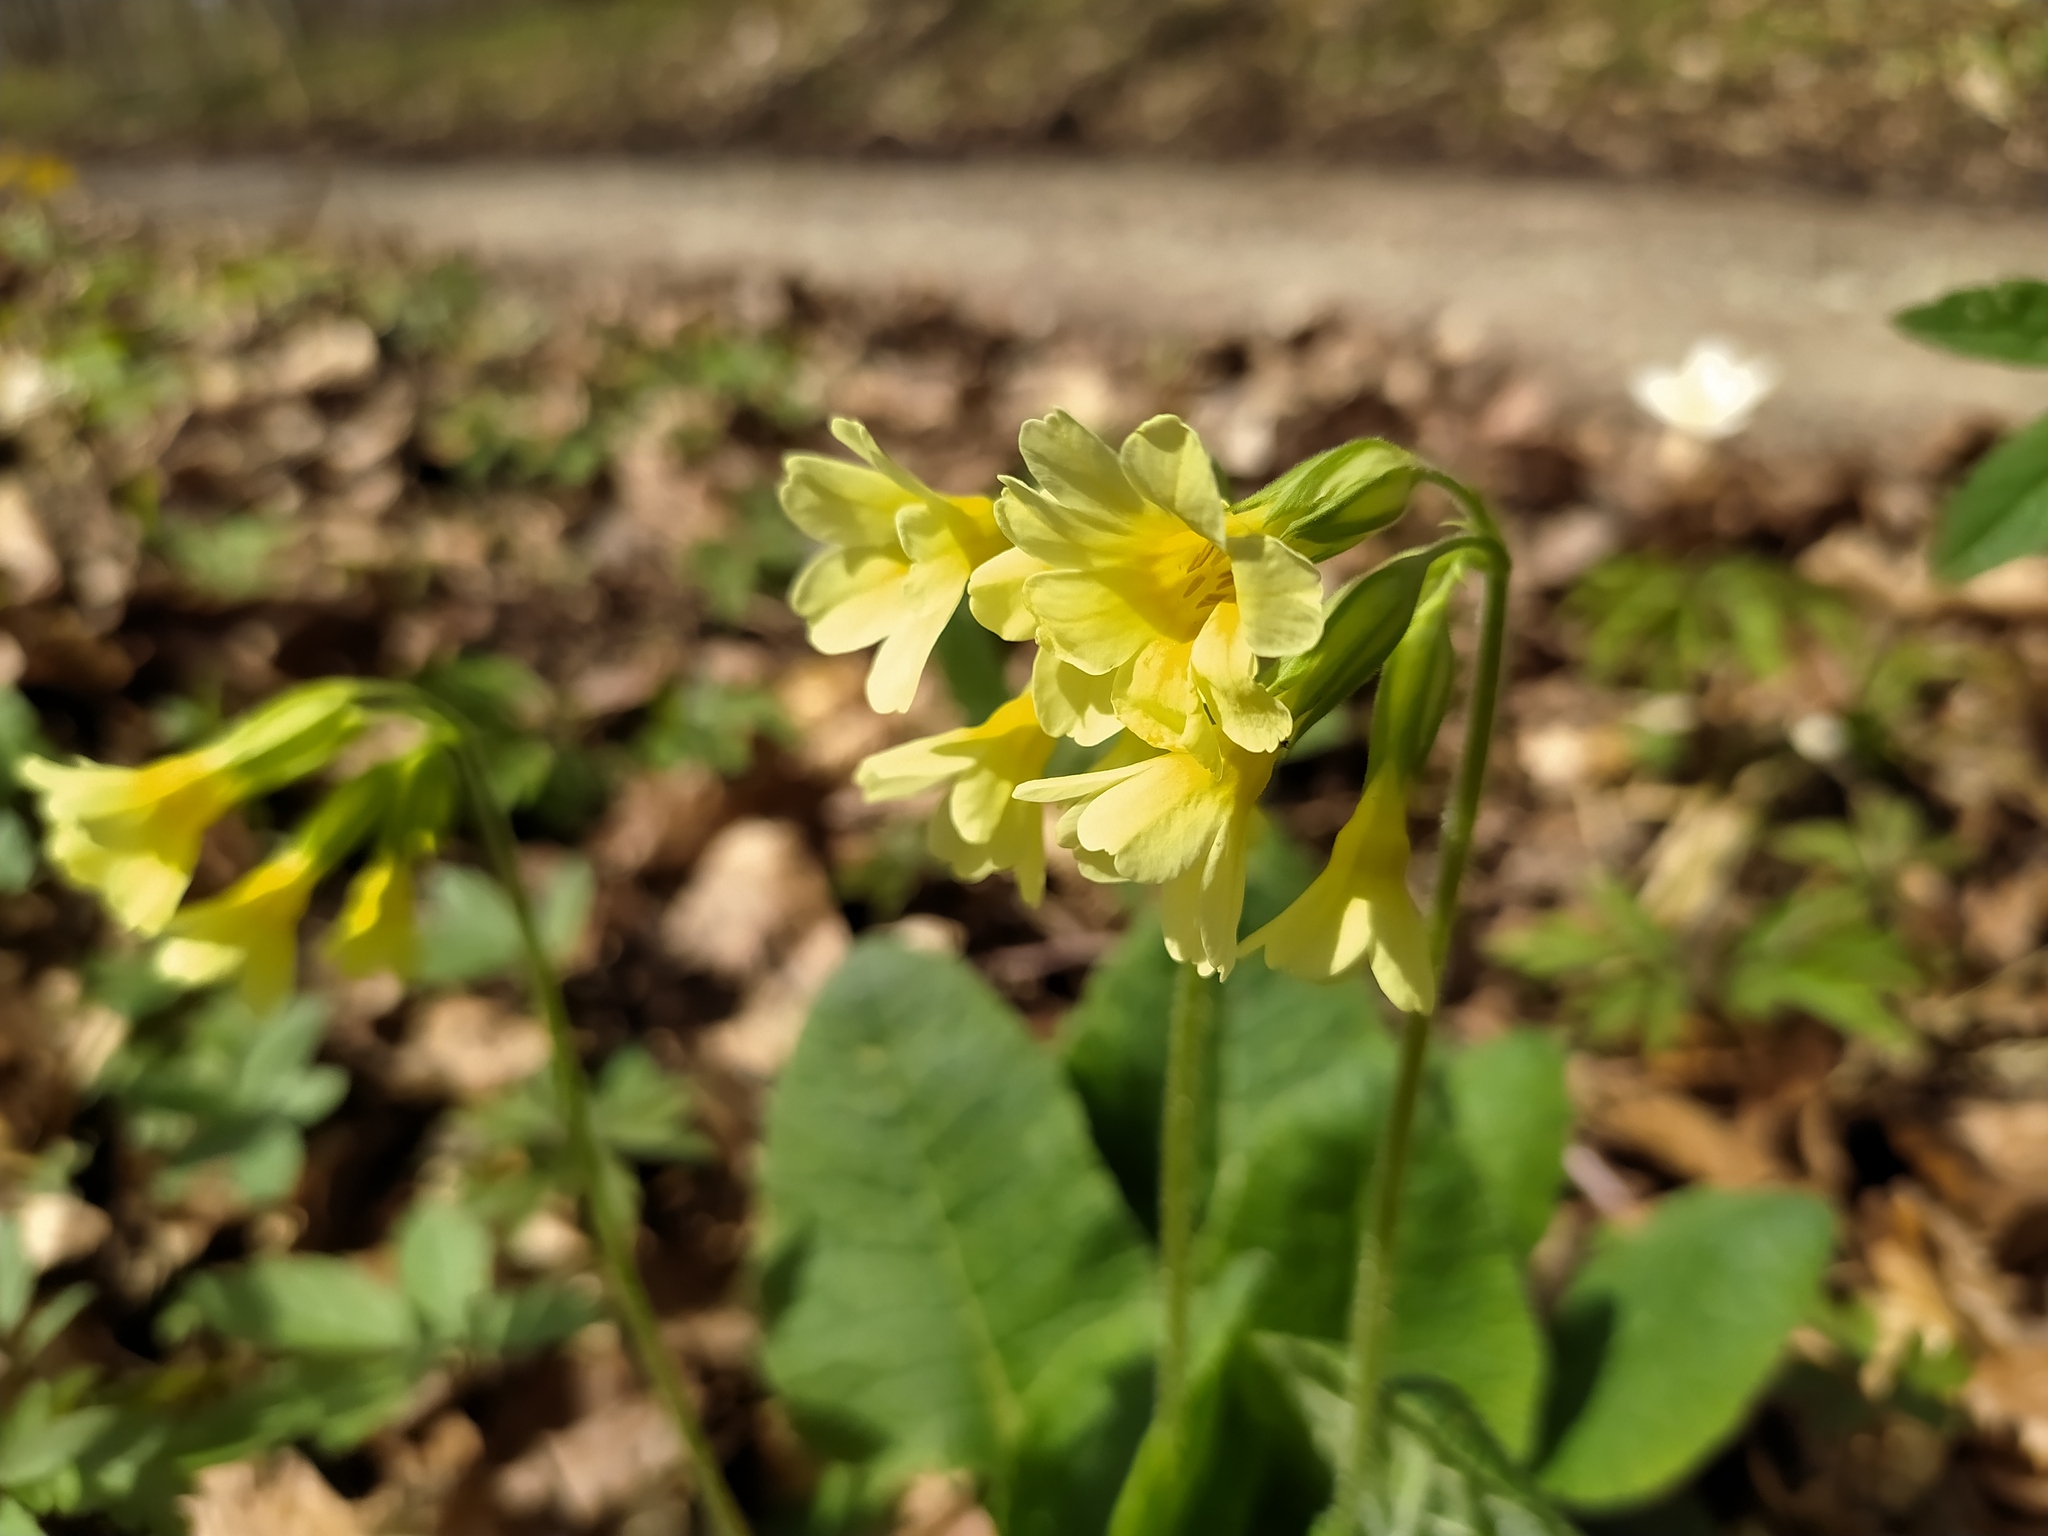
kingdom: Plantae
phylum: Tracheophyta
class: Magnoliopsida
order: Ericales
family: Primulaceae
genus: Primula
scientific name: Primula elatior
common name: Oxlip
